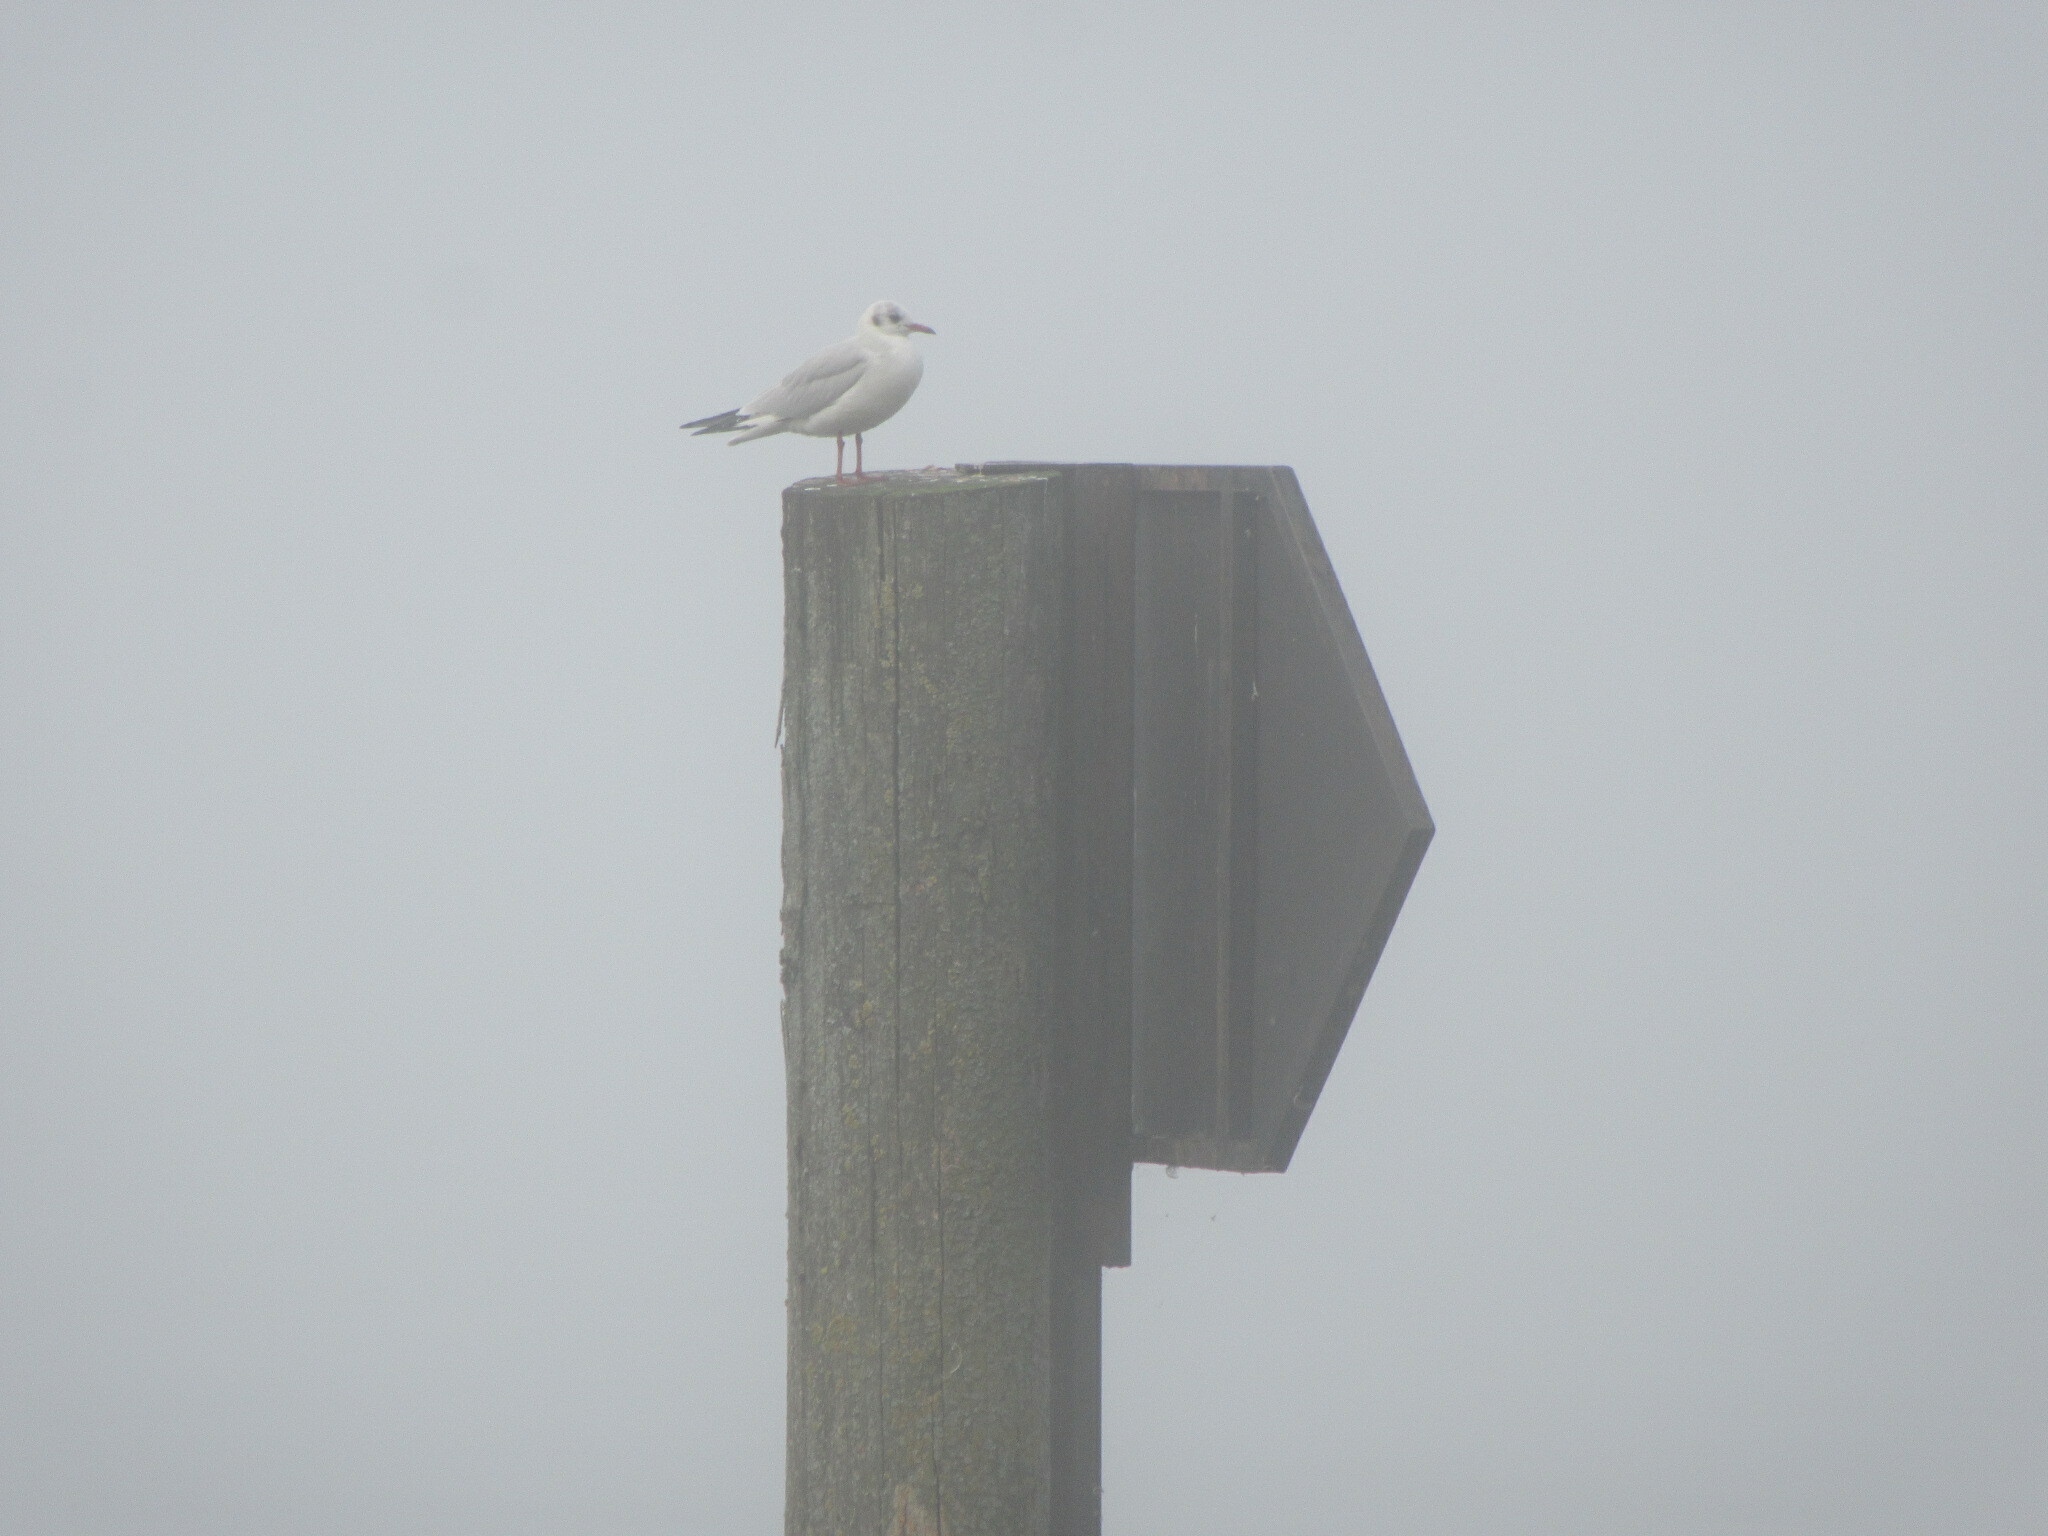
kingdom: Animalia
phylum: Chordata
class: Aves
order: Charadriiformes
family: Laridae
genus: Chroicocephalus
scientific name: Chroicocephalus ridibundus
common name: Black-headed gull
